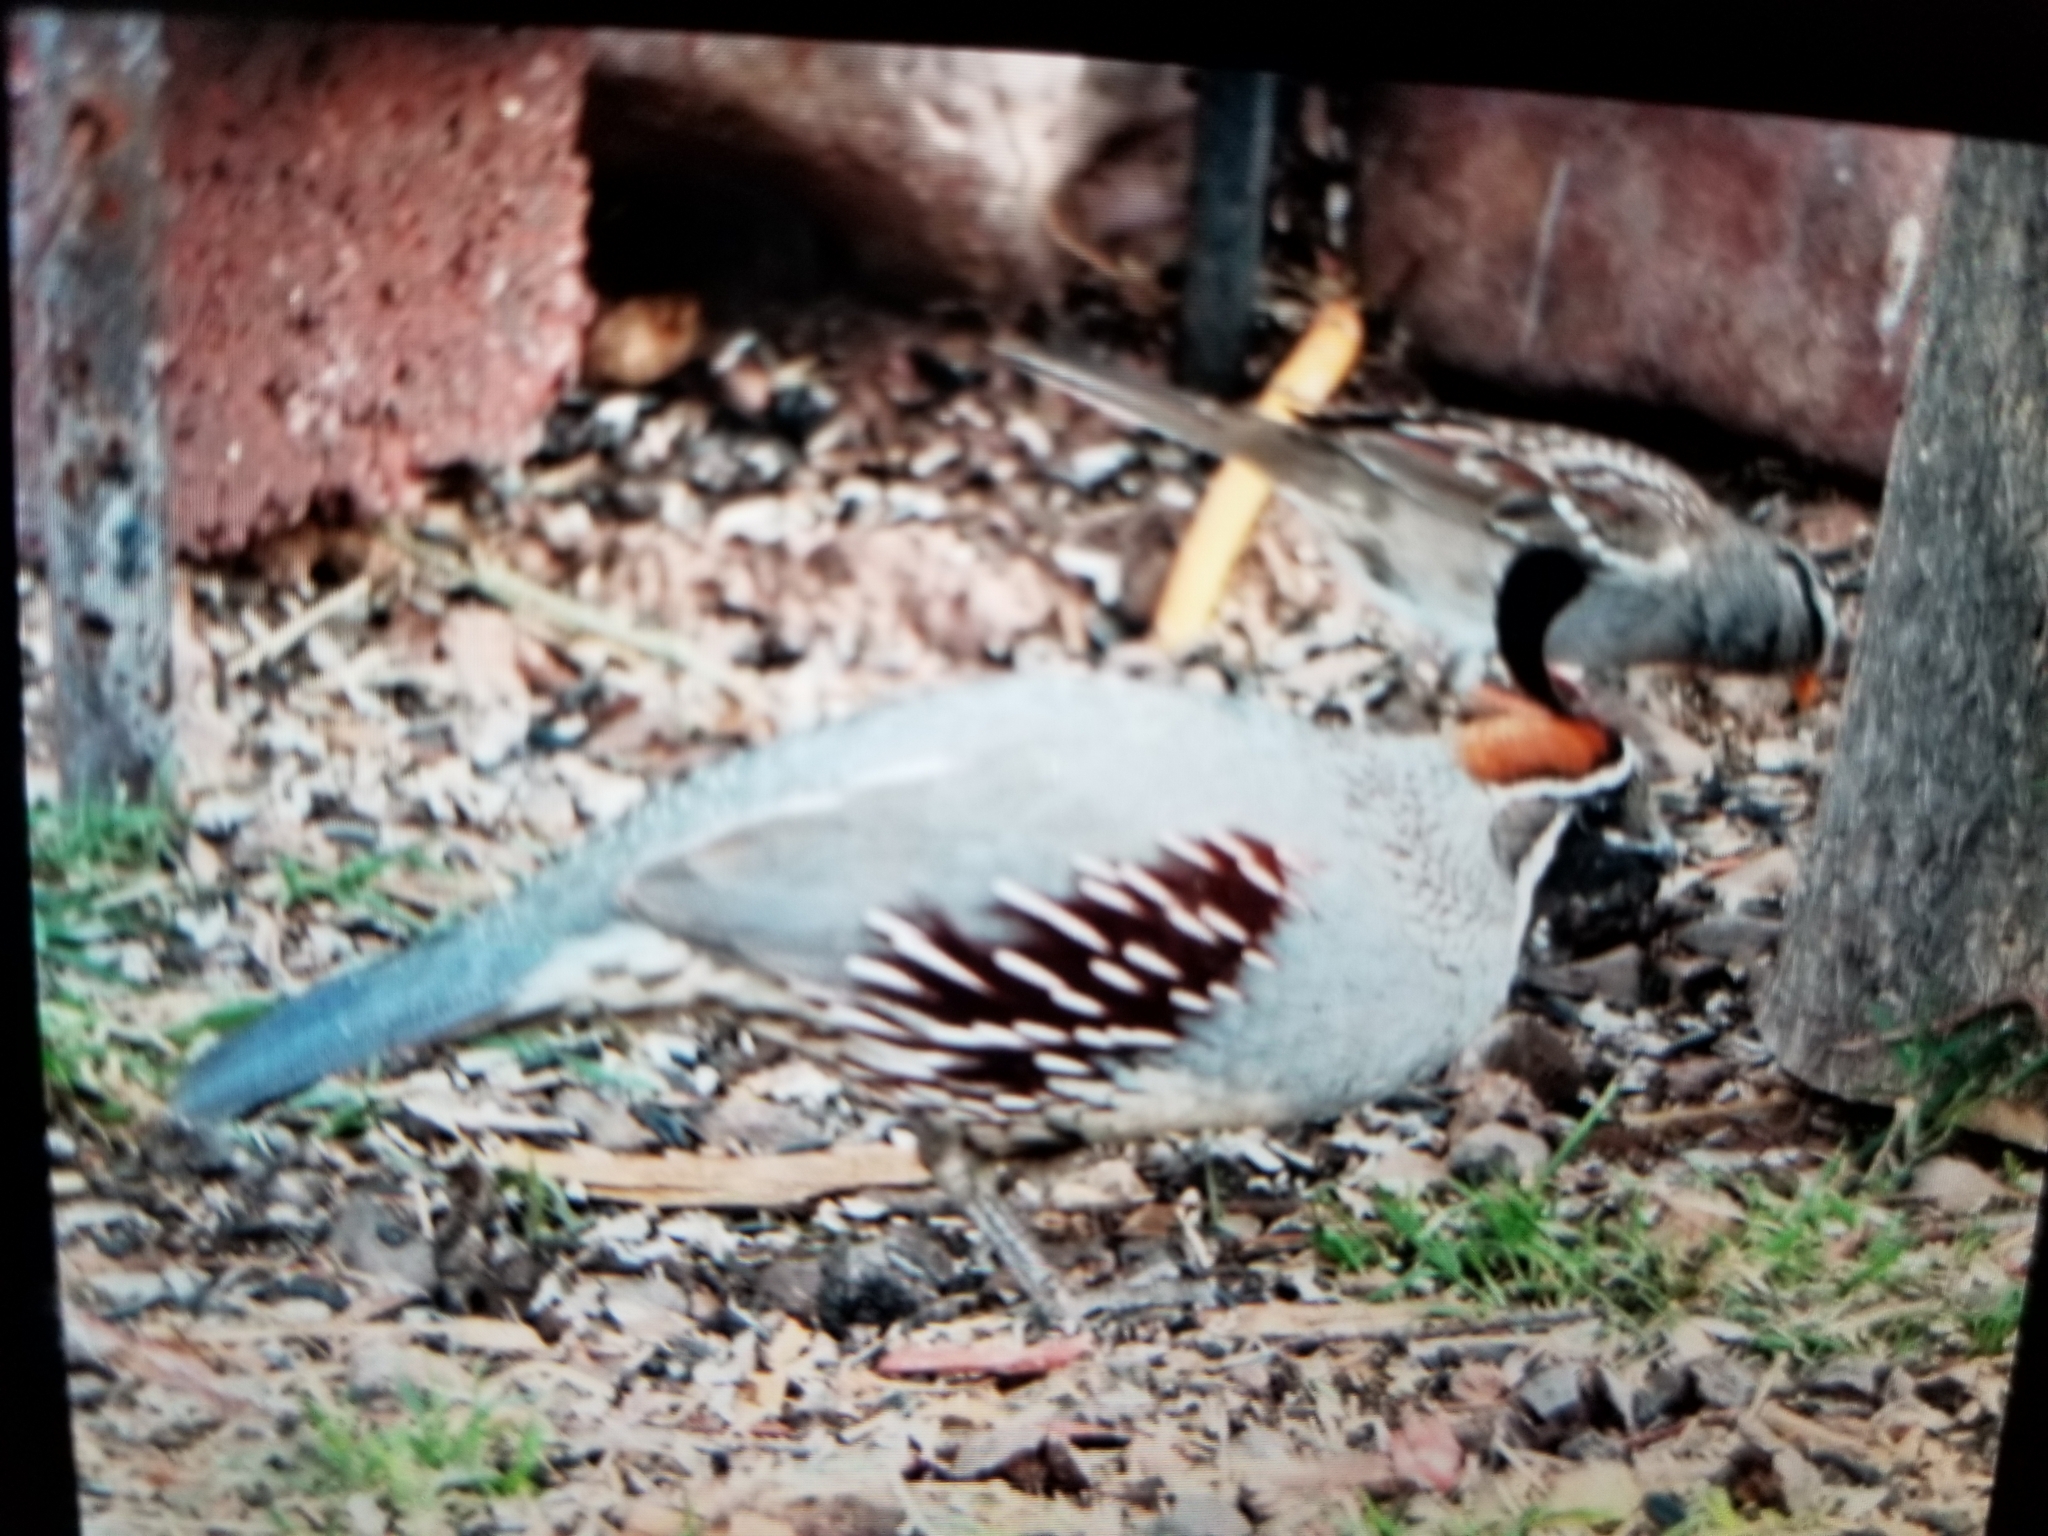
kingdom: Animalia
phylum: Chordata
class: Aves
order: Galliformes
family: Odontophoridae
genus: Callipepla
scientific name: Callipepla gambelii
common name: Gambel's quail
